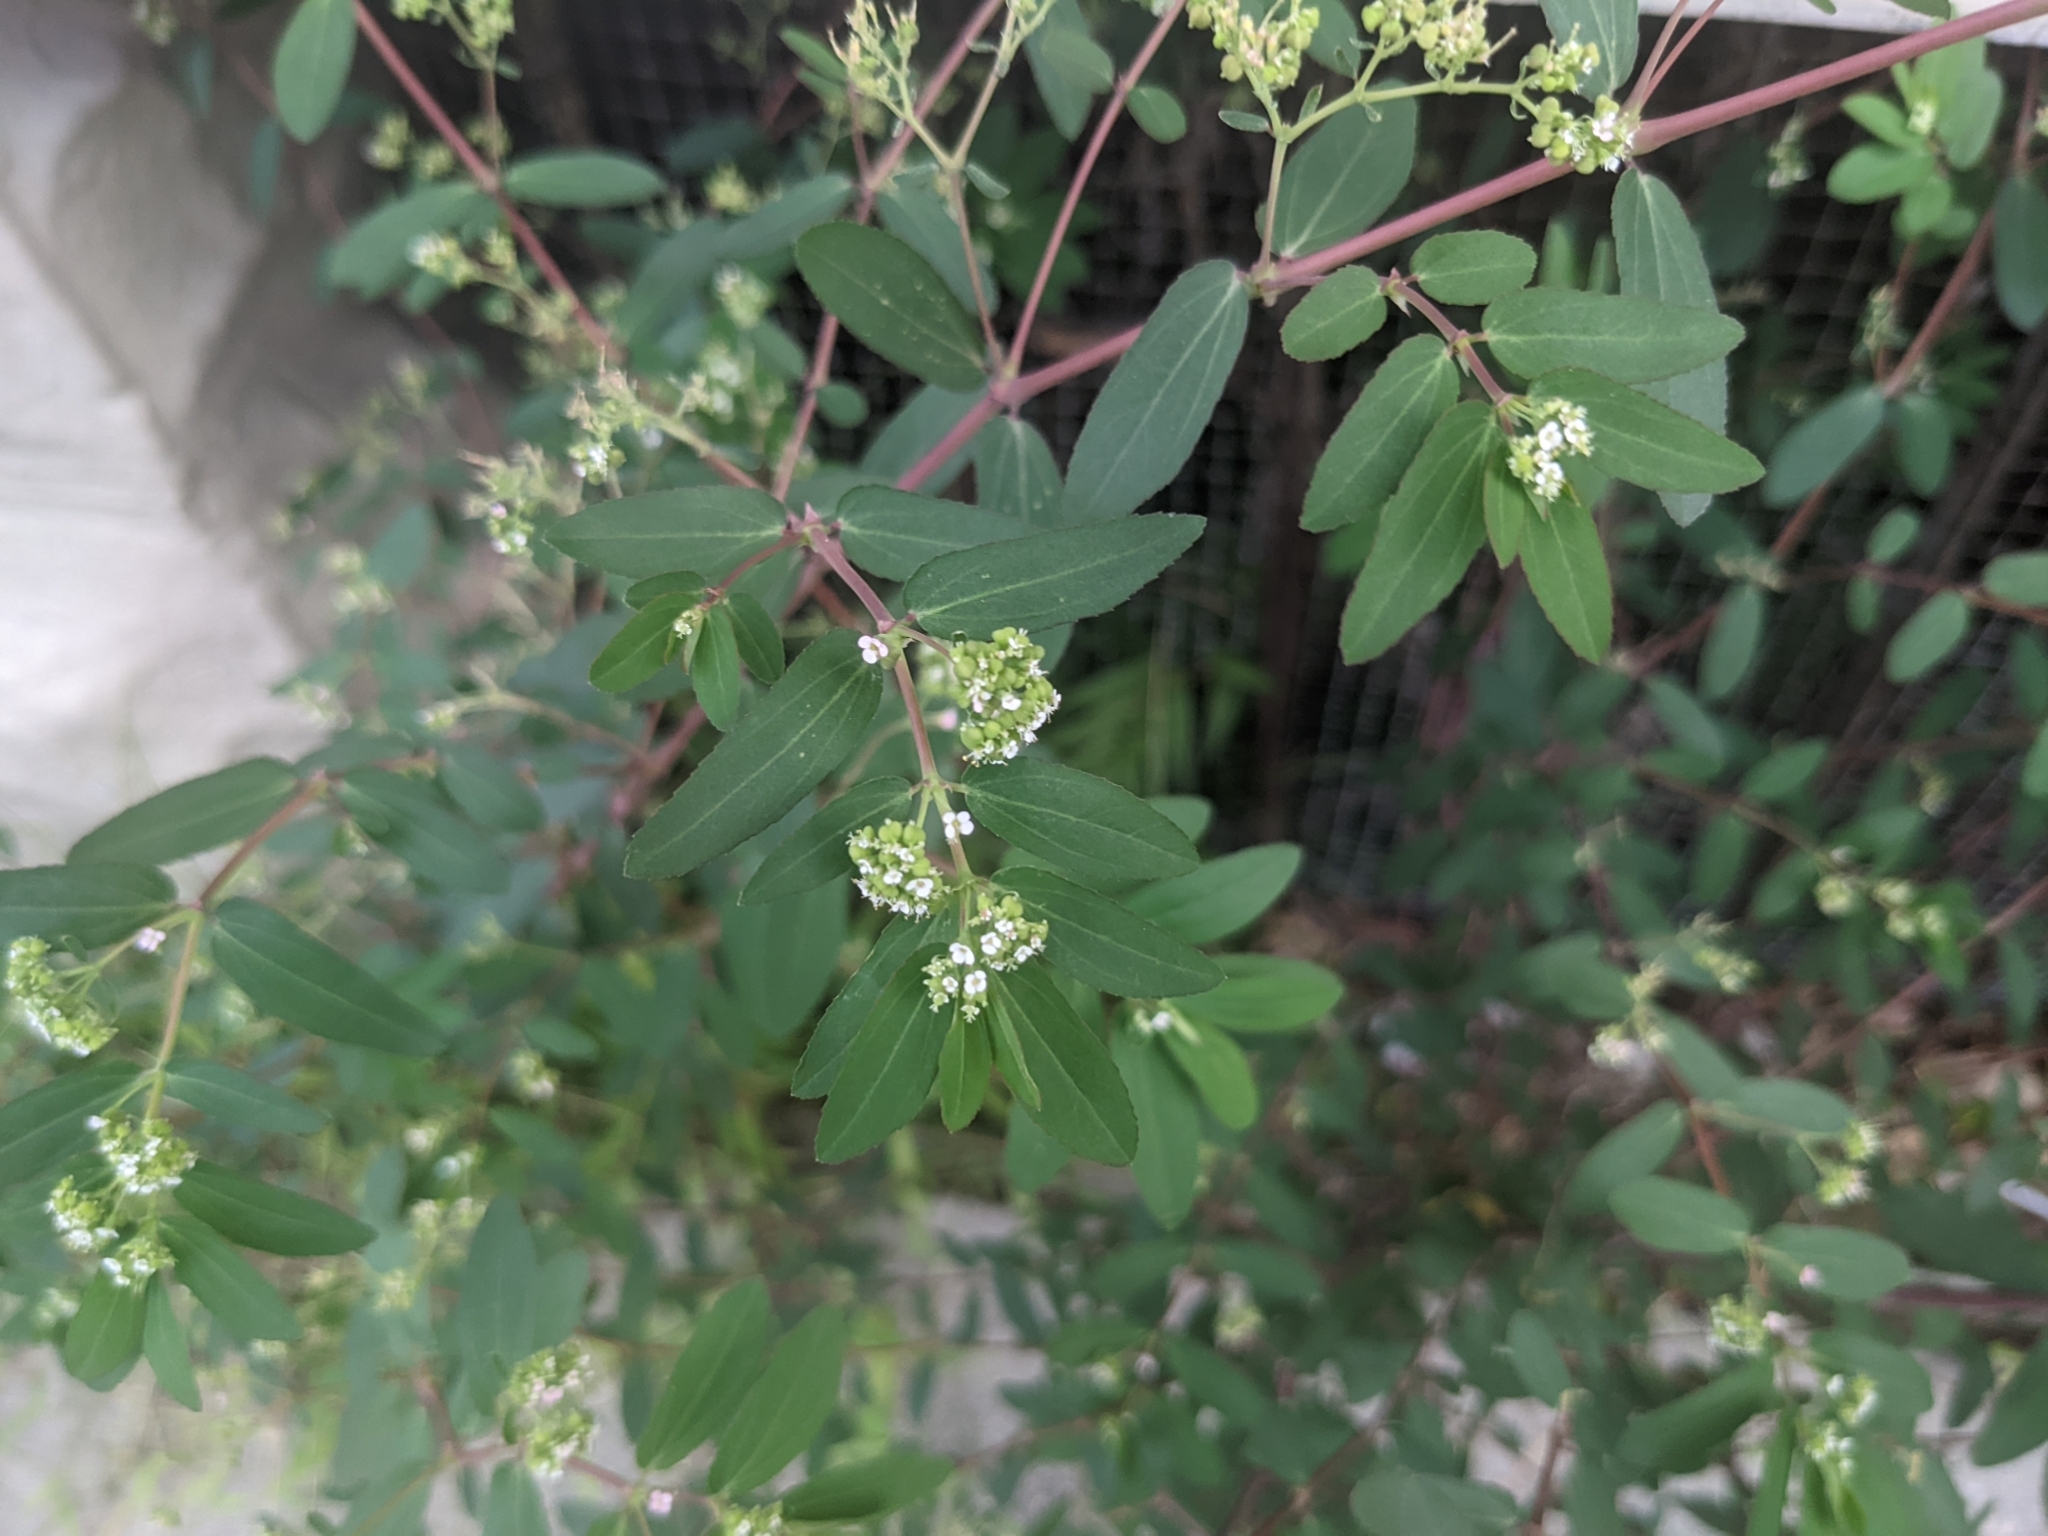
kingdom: Plantae
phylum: Tracheophyta
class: Magnoliopsida
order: Malpighiales
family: Euphorbiaceae
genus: Euphorbia
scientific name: Euphorbia hypericifolia
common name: Graceful sandmat
